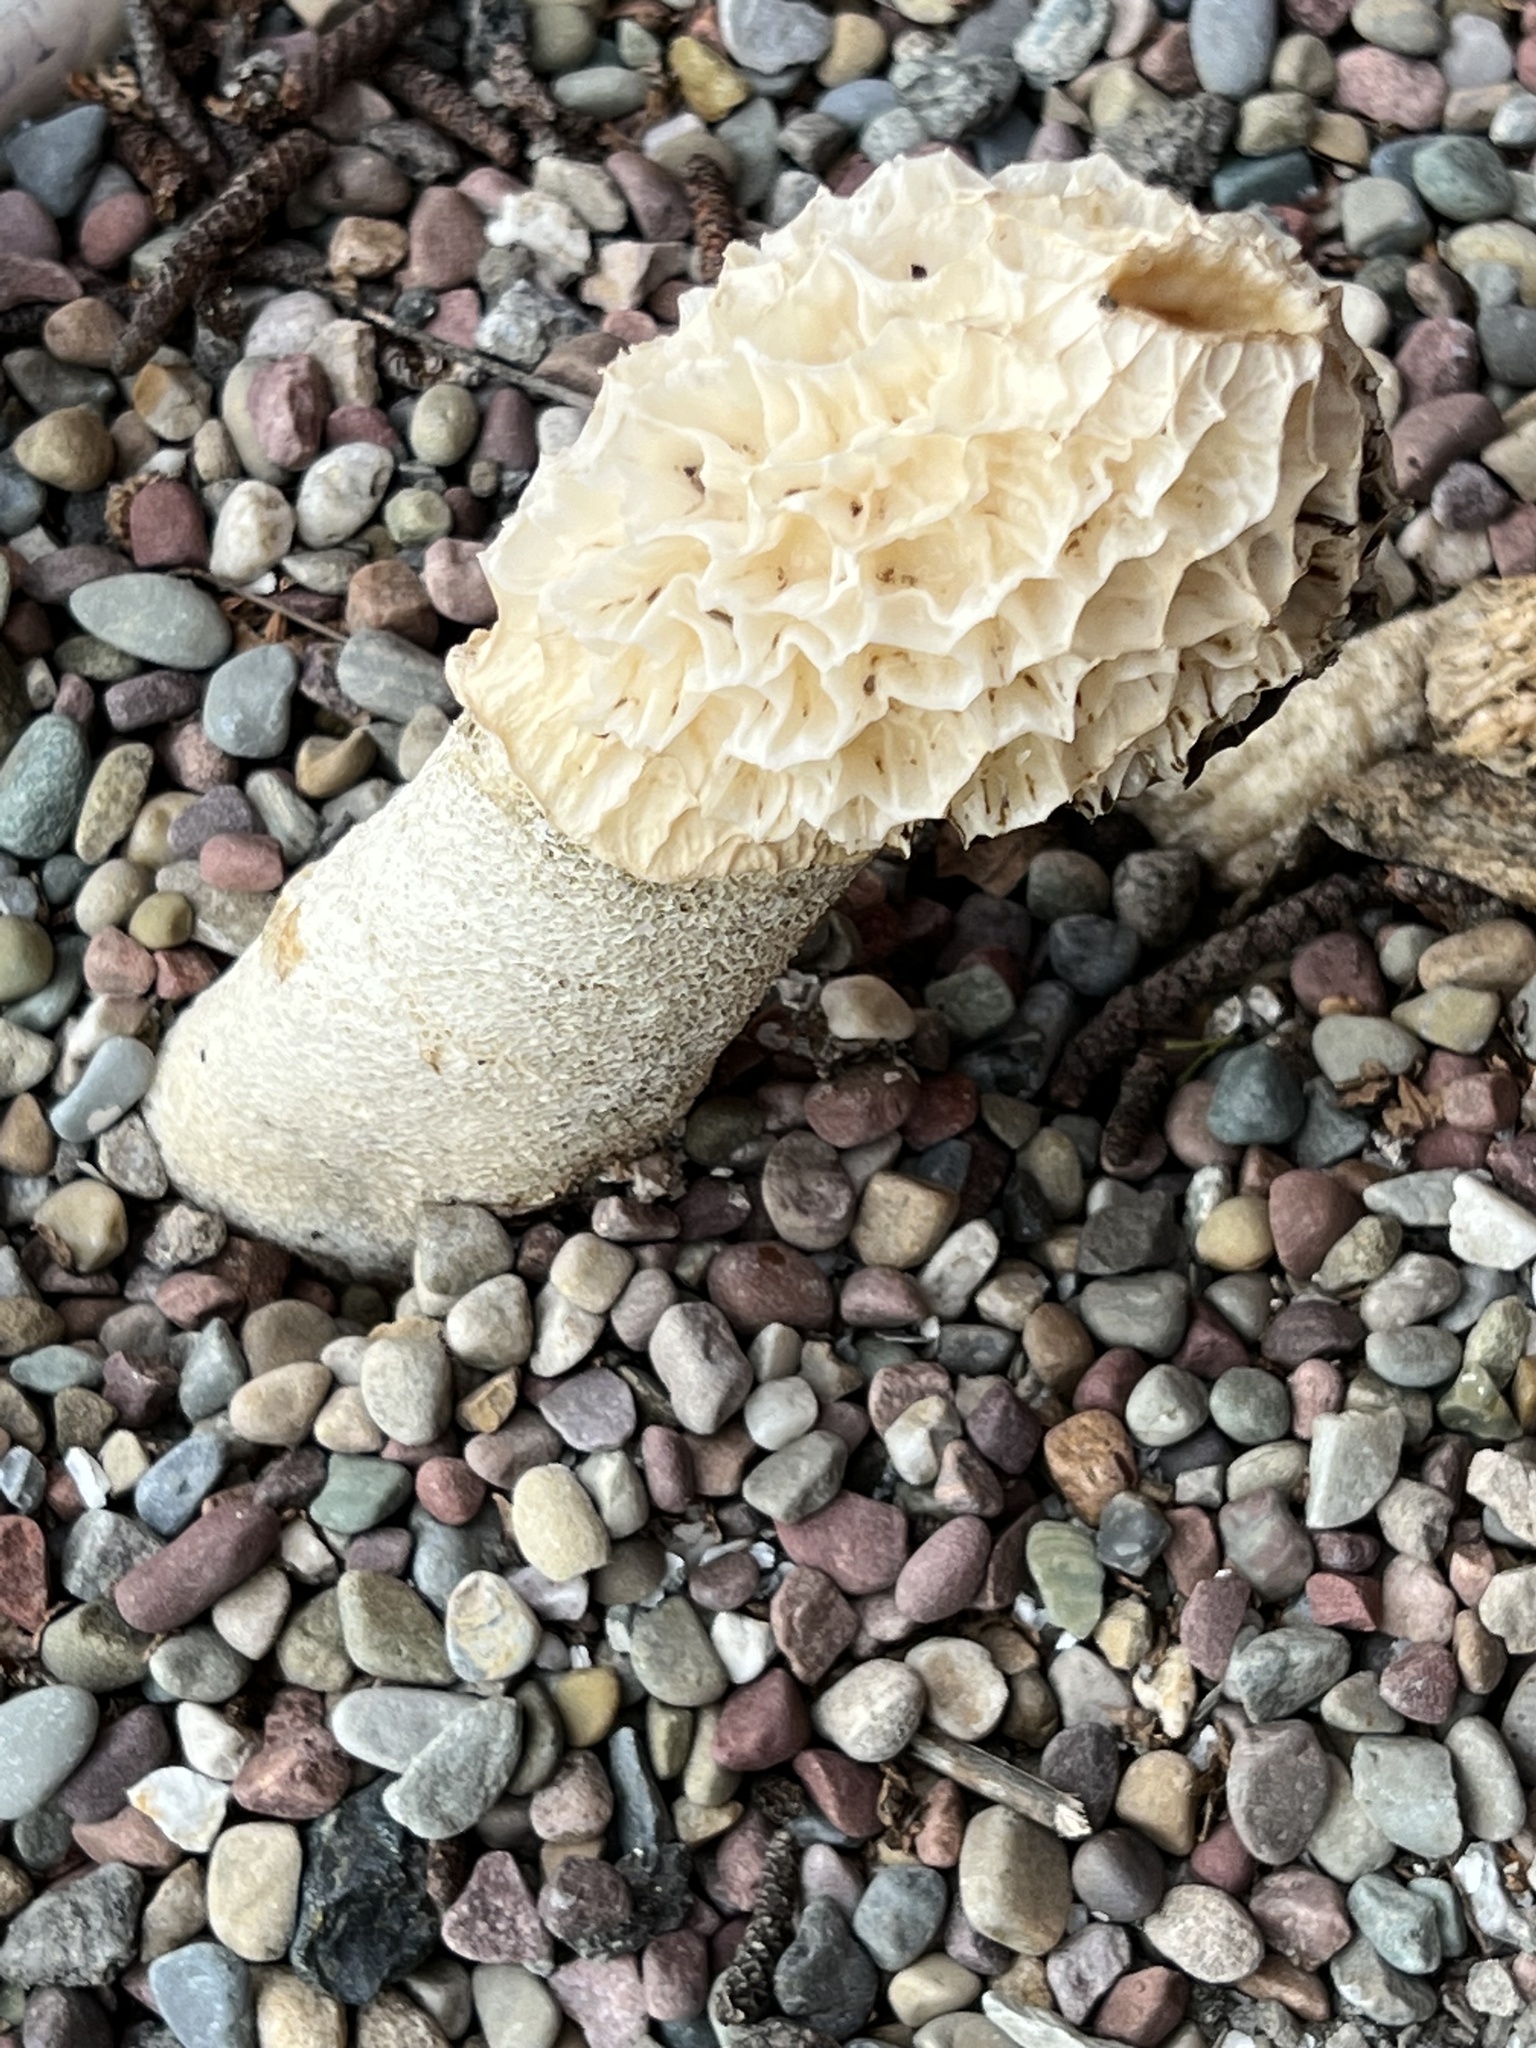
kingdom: Fungi
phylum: Basidiomycota
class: Agaricomycetes
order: Phallales
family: Phallaceae
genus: Phallus
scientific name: Phallus hadriani
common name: Sand stinkhorn
